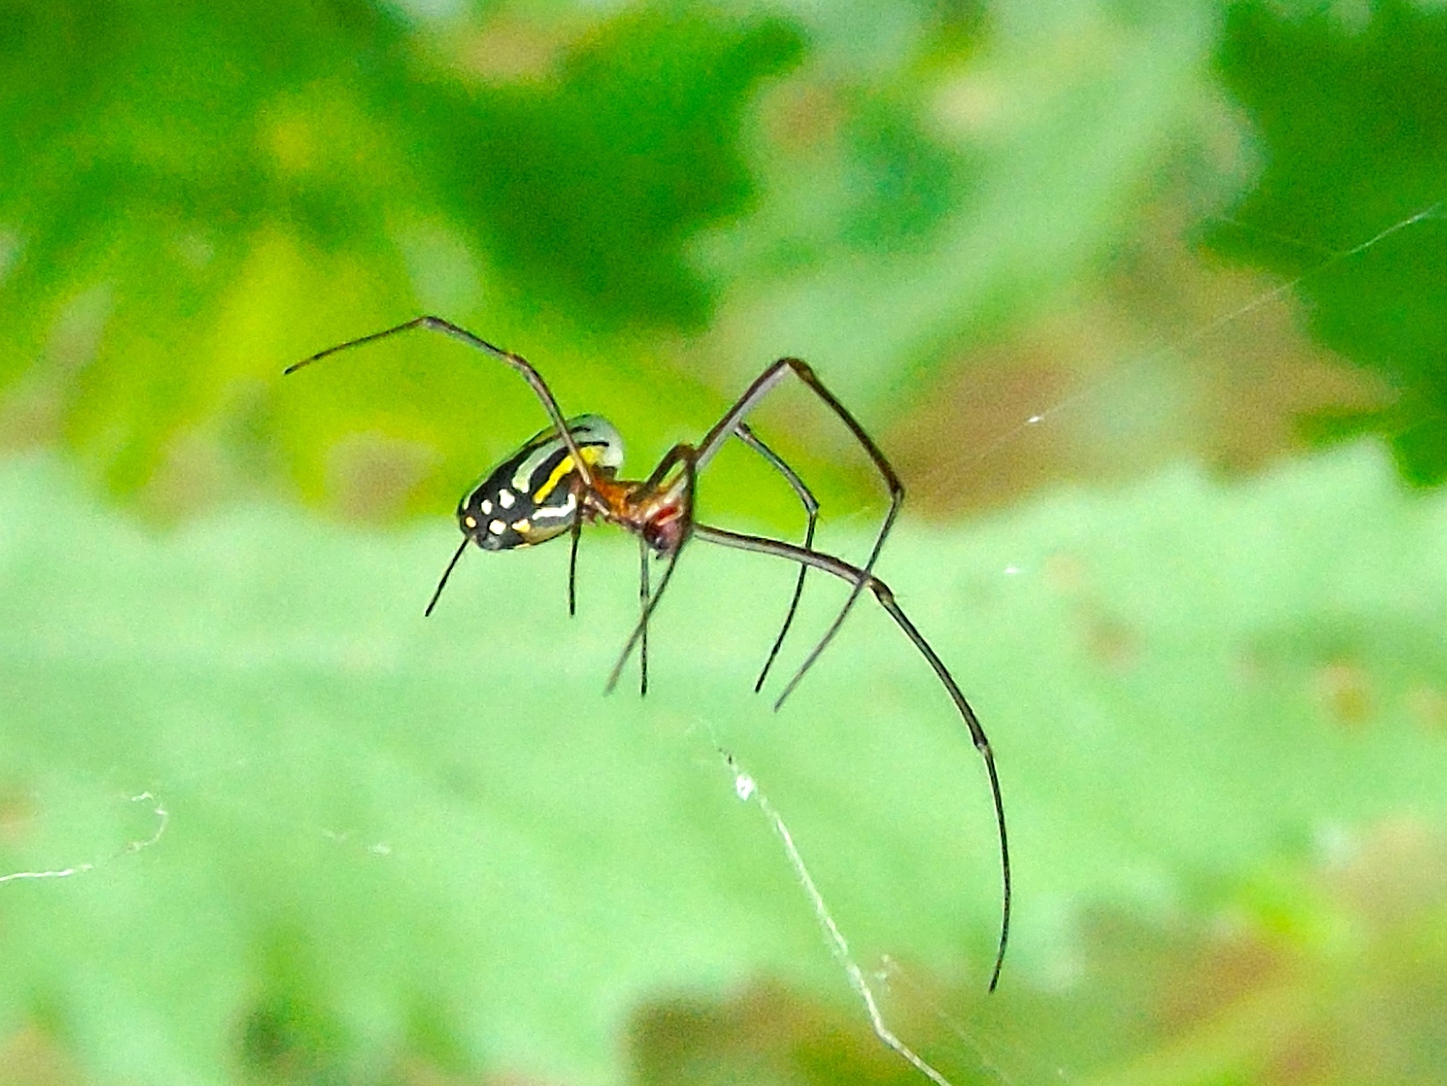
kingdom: Animalia
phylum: Arthropoda
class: Arachnida
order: Araneae
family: Tetragnathidae
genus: Leucauge
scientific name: Leucauge
